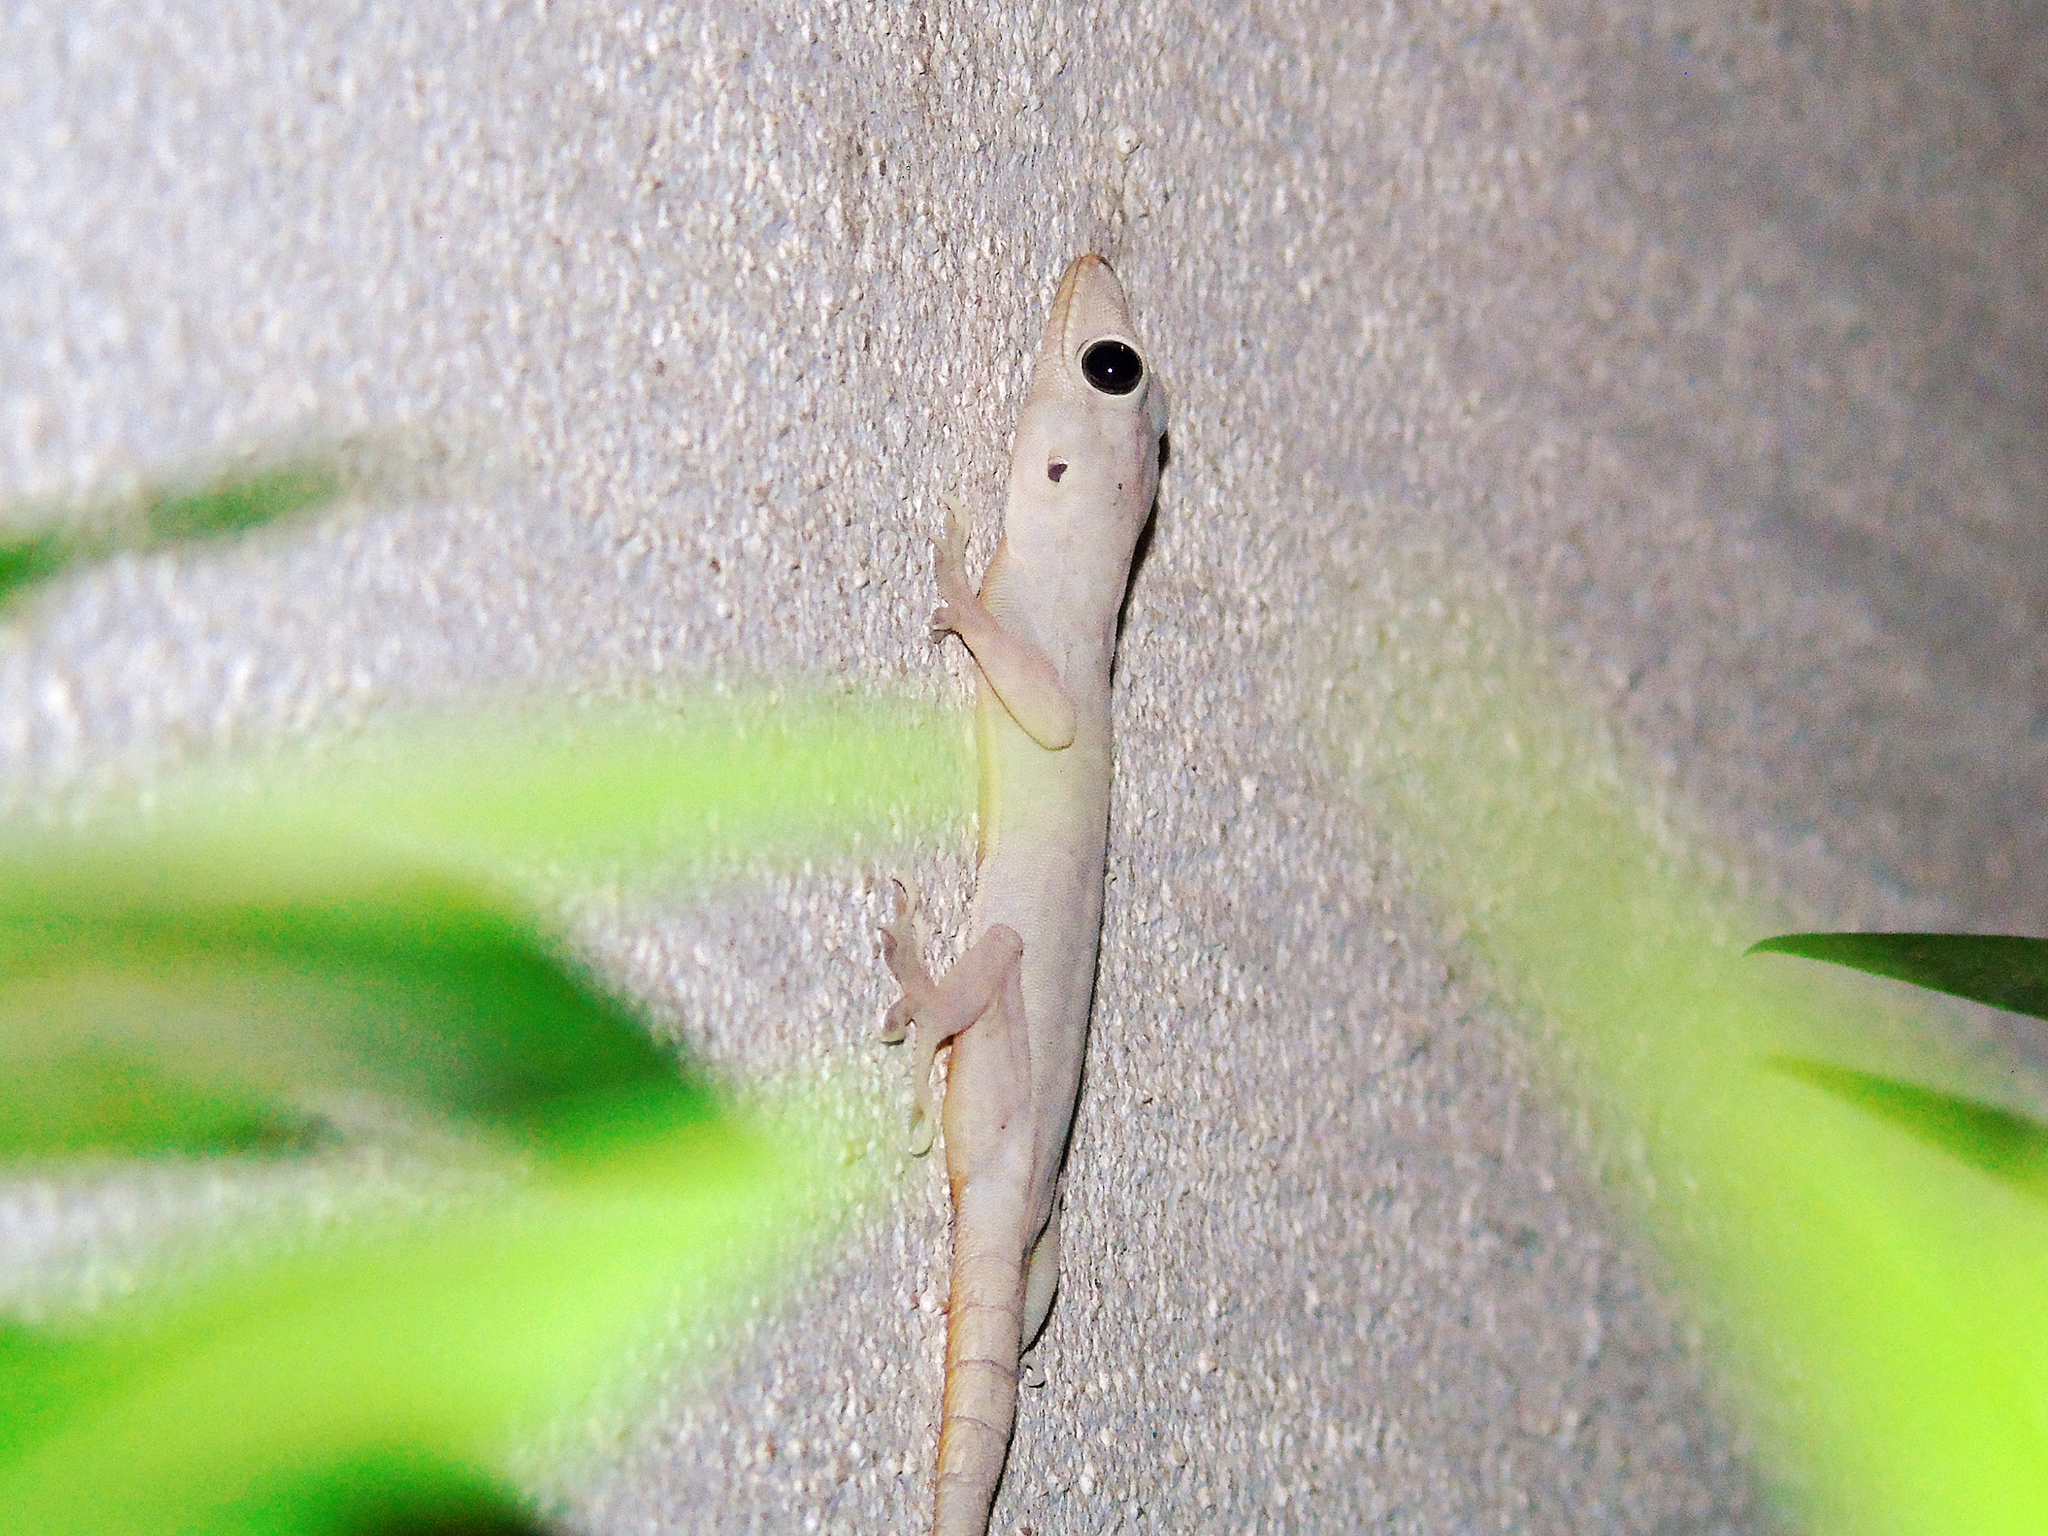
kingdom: Animalia
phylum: Chordata
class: Squamata
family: Gekkonidae
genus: Hemidactylus
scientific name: Hemidactylus flaviviridis
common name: Northern house gecko
